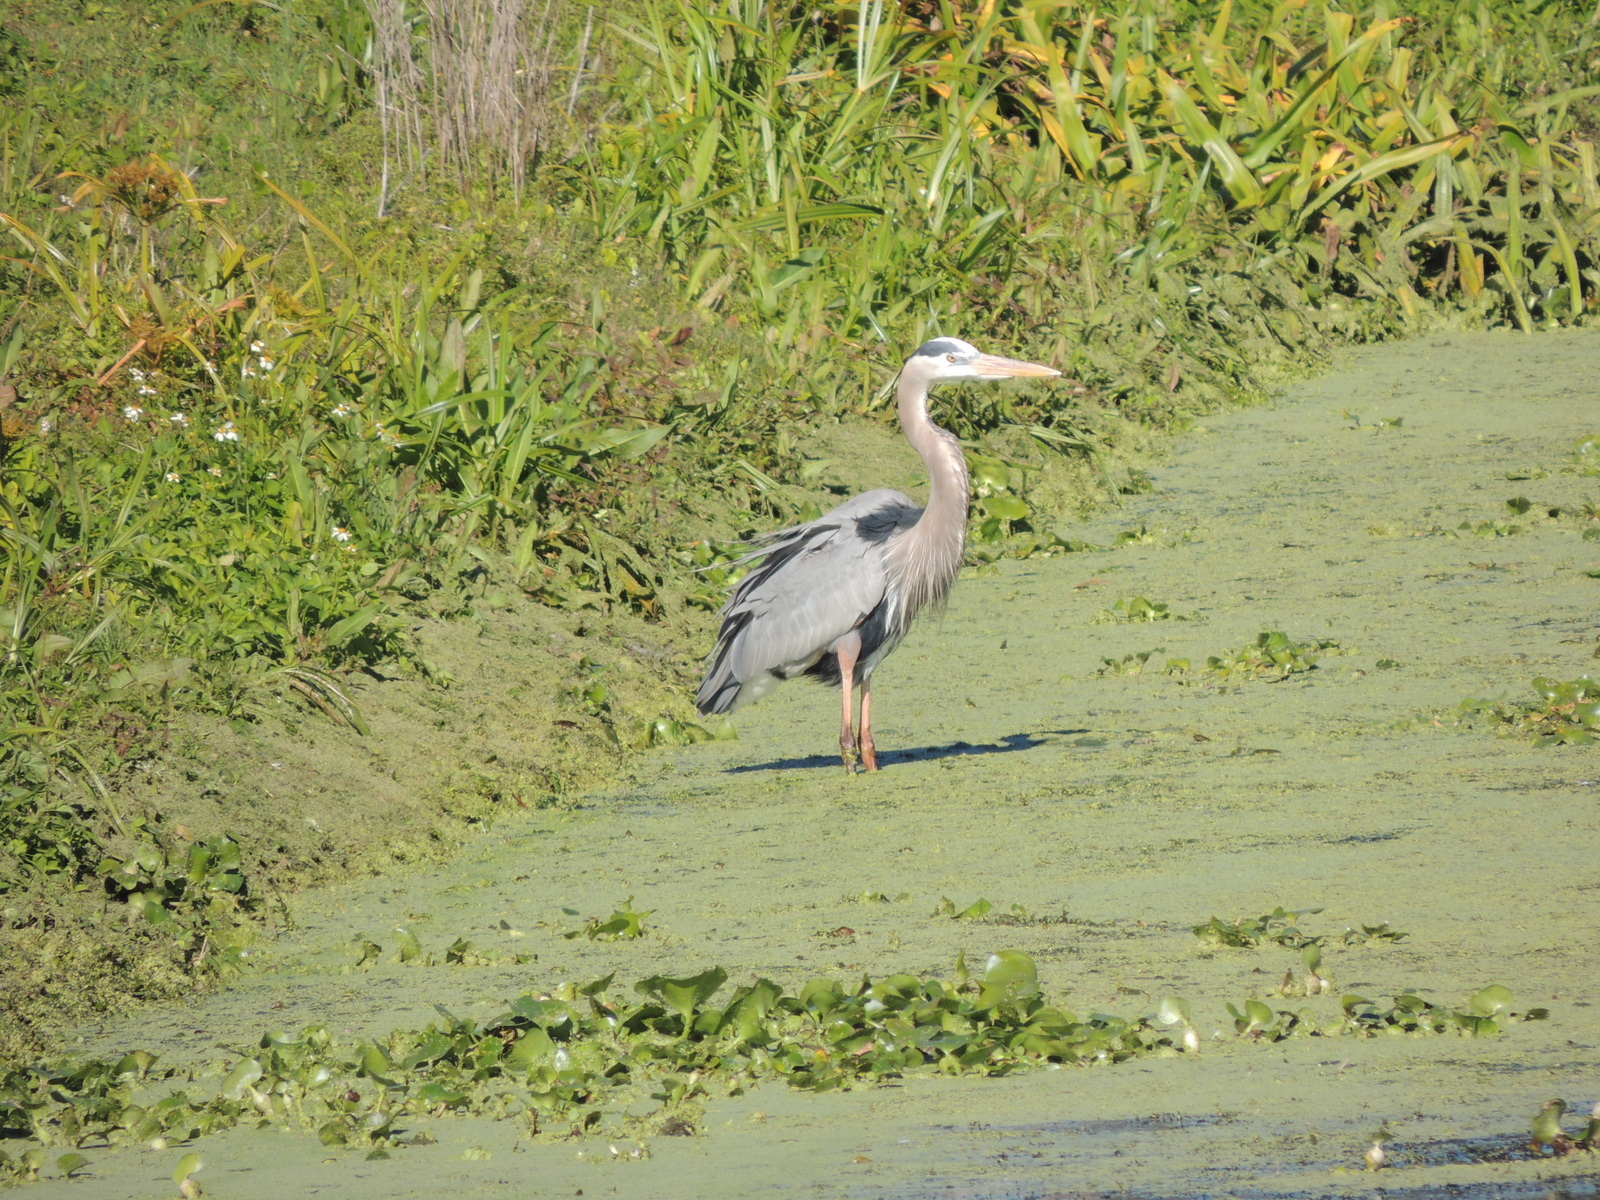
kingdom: Animalia
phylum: Chordata
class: Aves
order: Pelecaniformes
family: Ardeidae
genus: Ardea
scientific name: Ardea herodias
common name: Great blue heron
